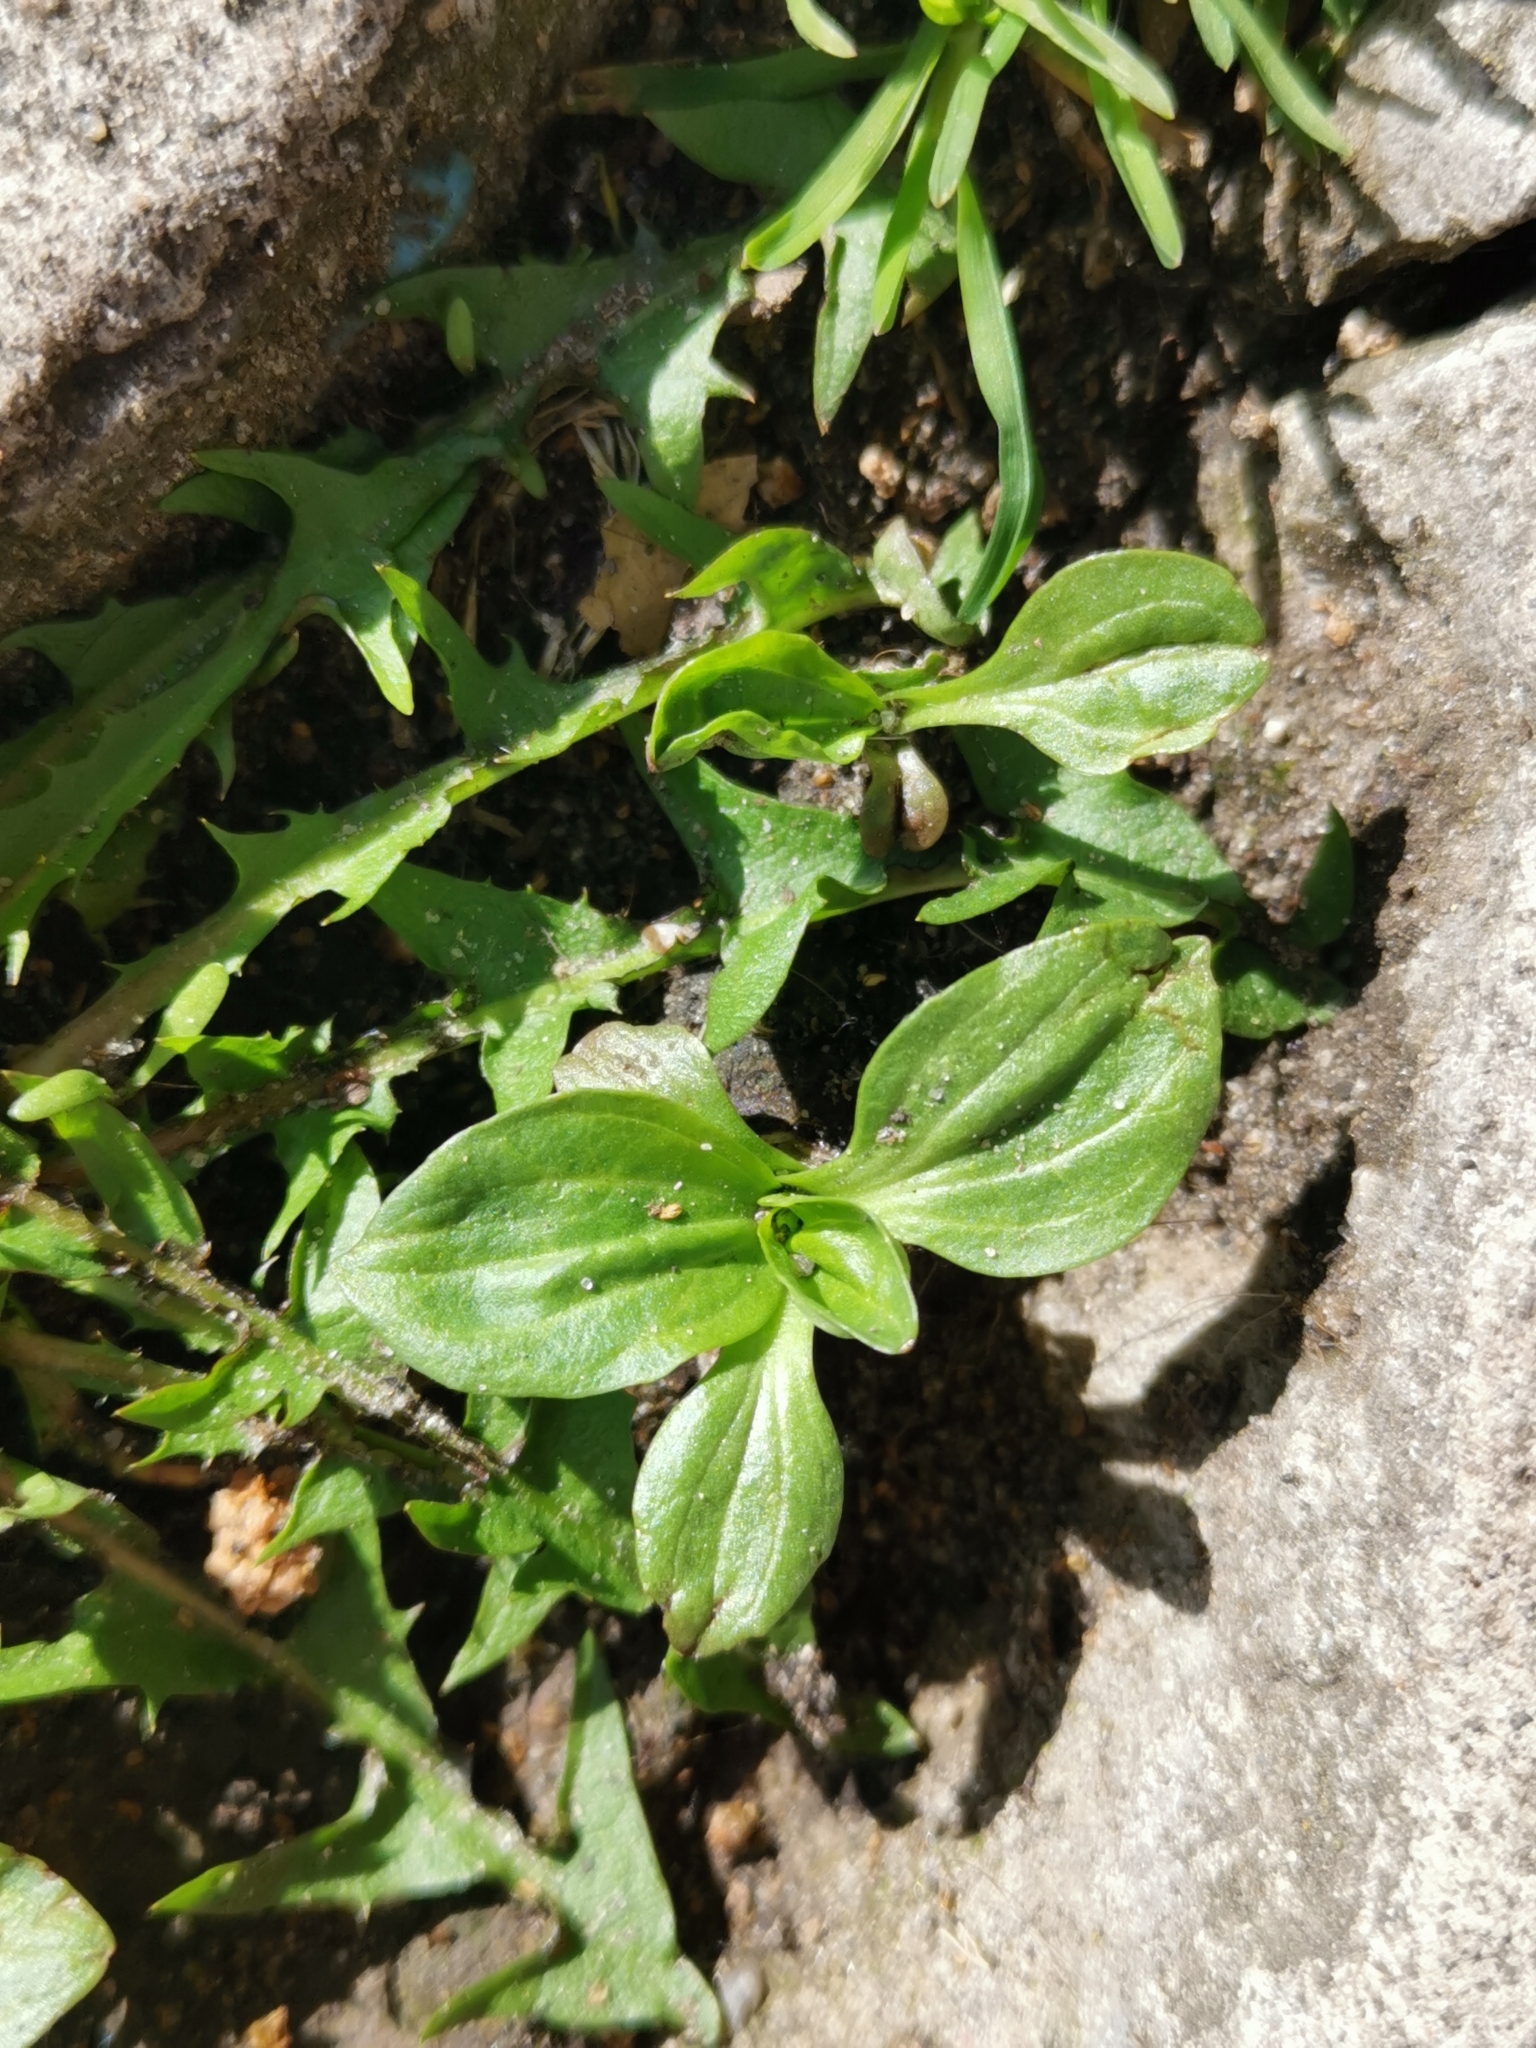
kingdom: Plantae
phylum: Tracheophyta
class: Magnoliopsida
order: Lamiales
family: Plantaginaceae
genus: Plantago
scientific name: Plantago major
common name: Common plantain
